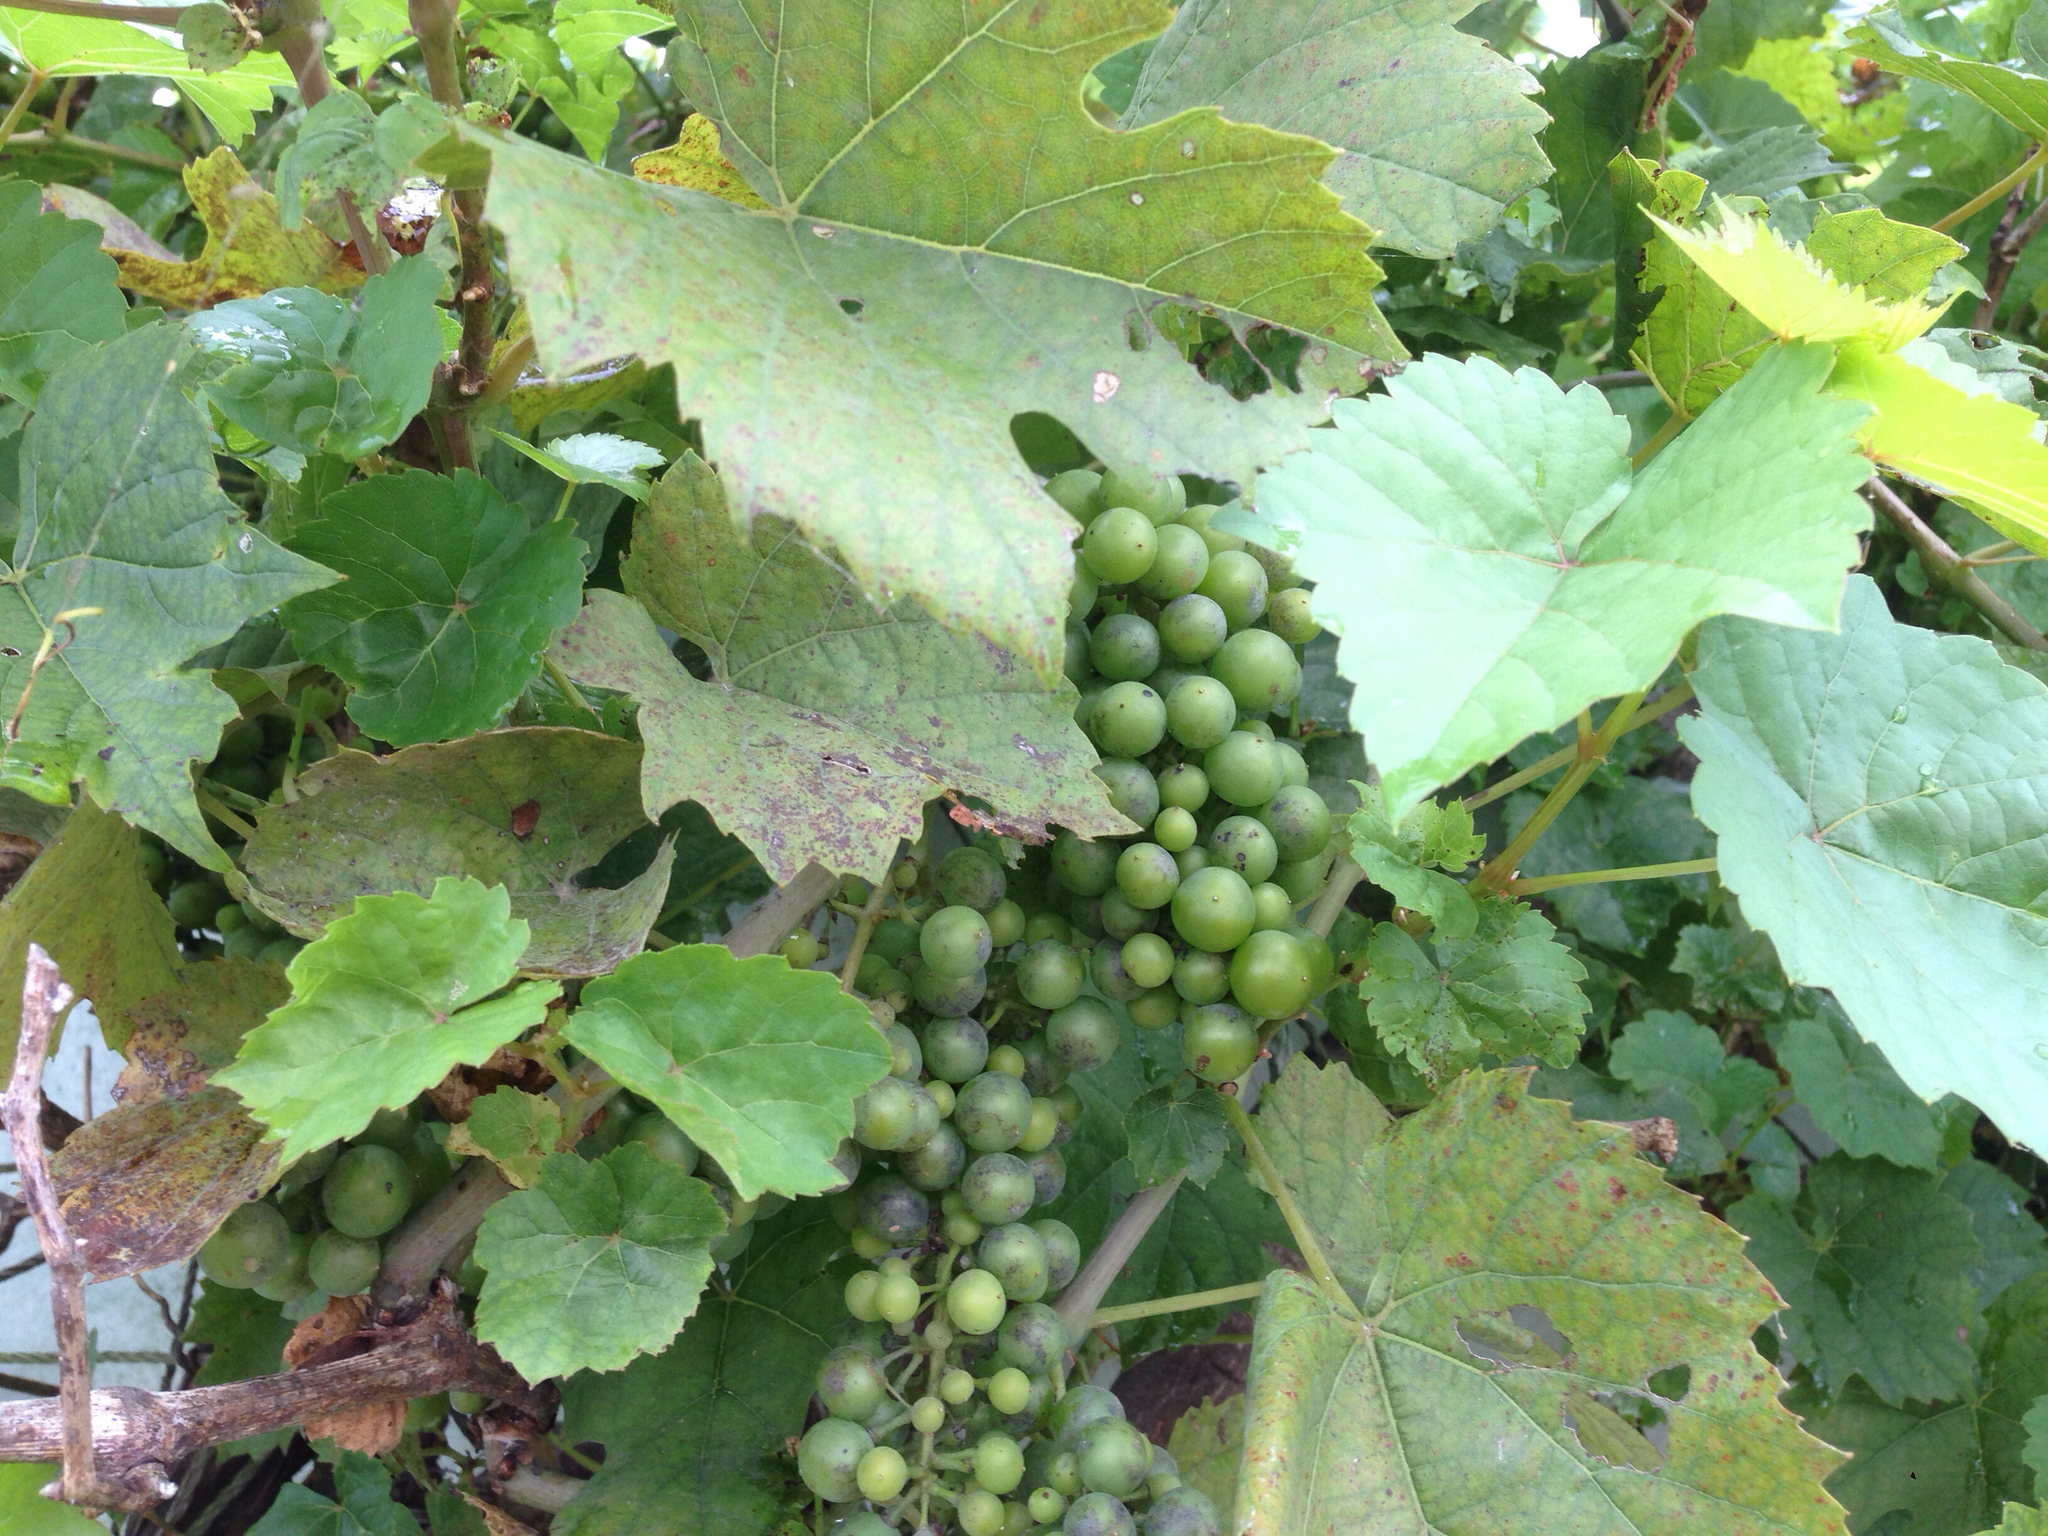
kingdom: Plantae
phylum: Tracheophyta
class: Magnoliopsida
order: Vitales
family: Vitaceae
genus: Vitis
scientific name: Vitis vinifera
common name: Grape-vine
